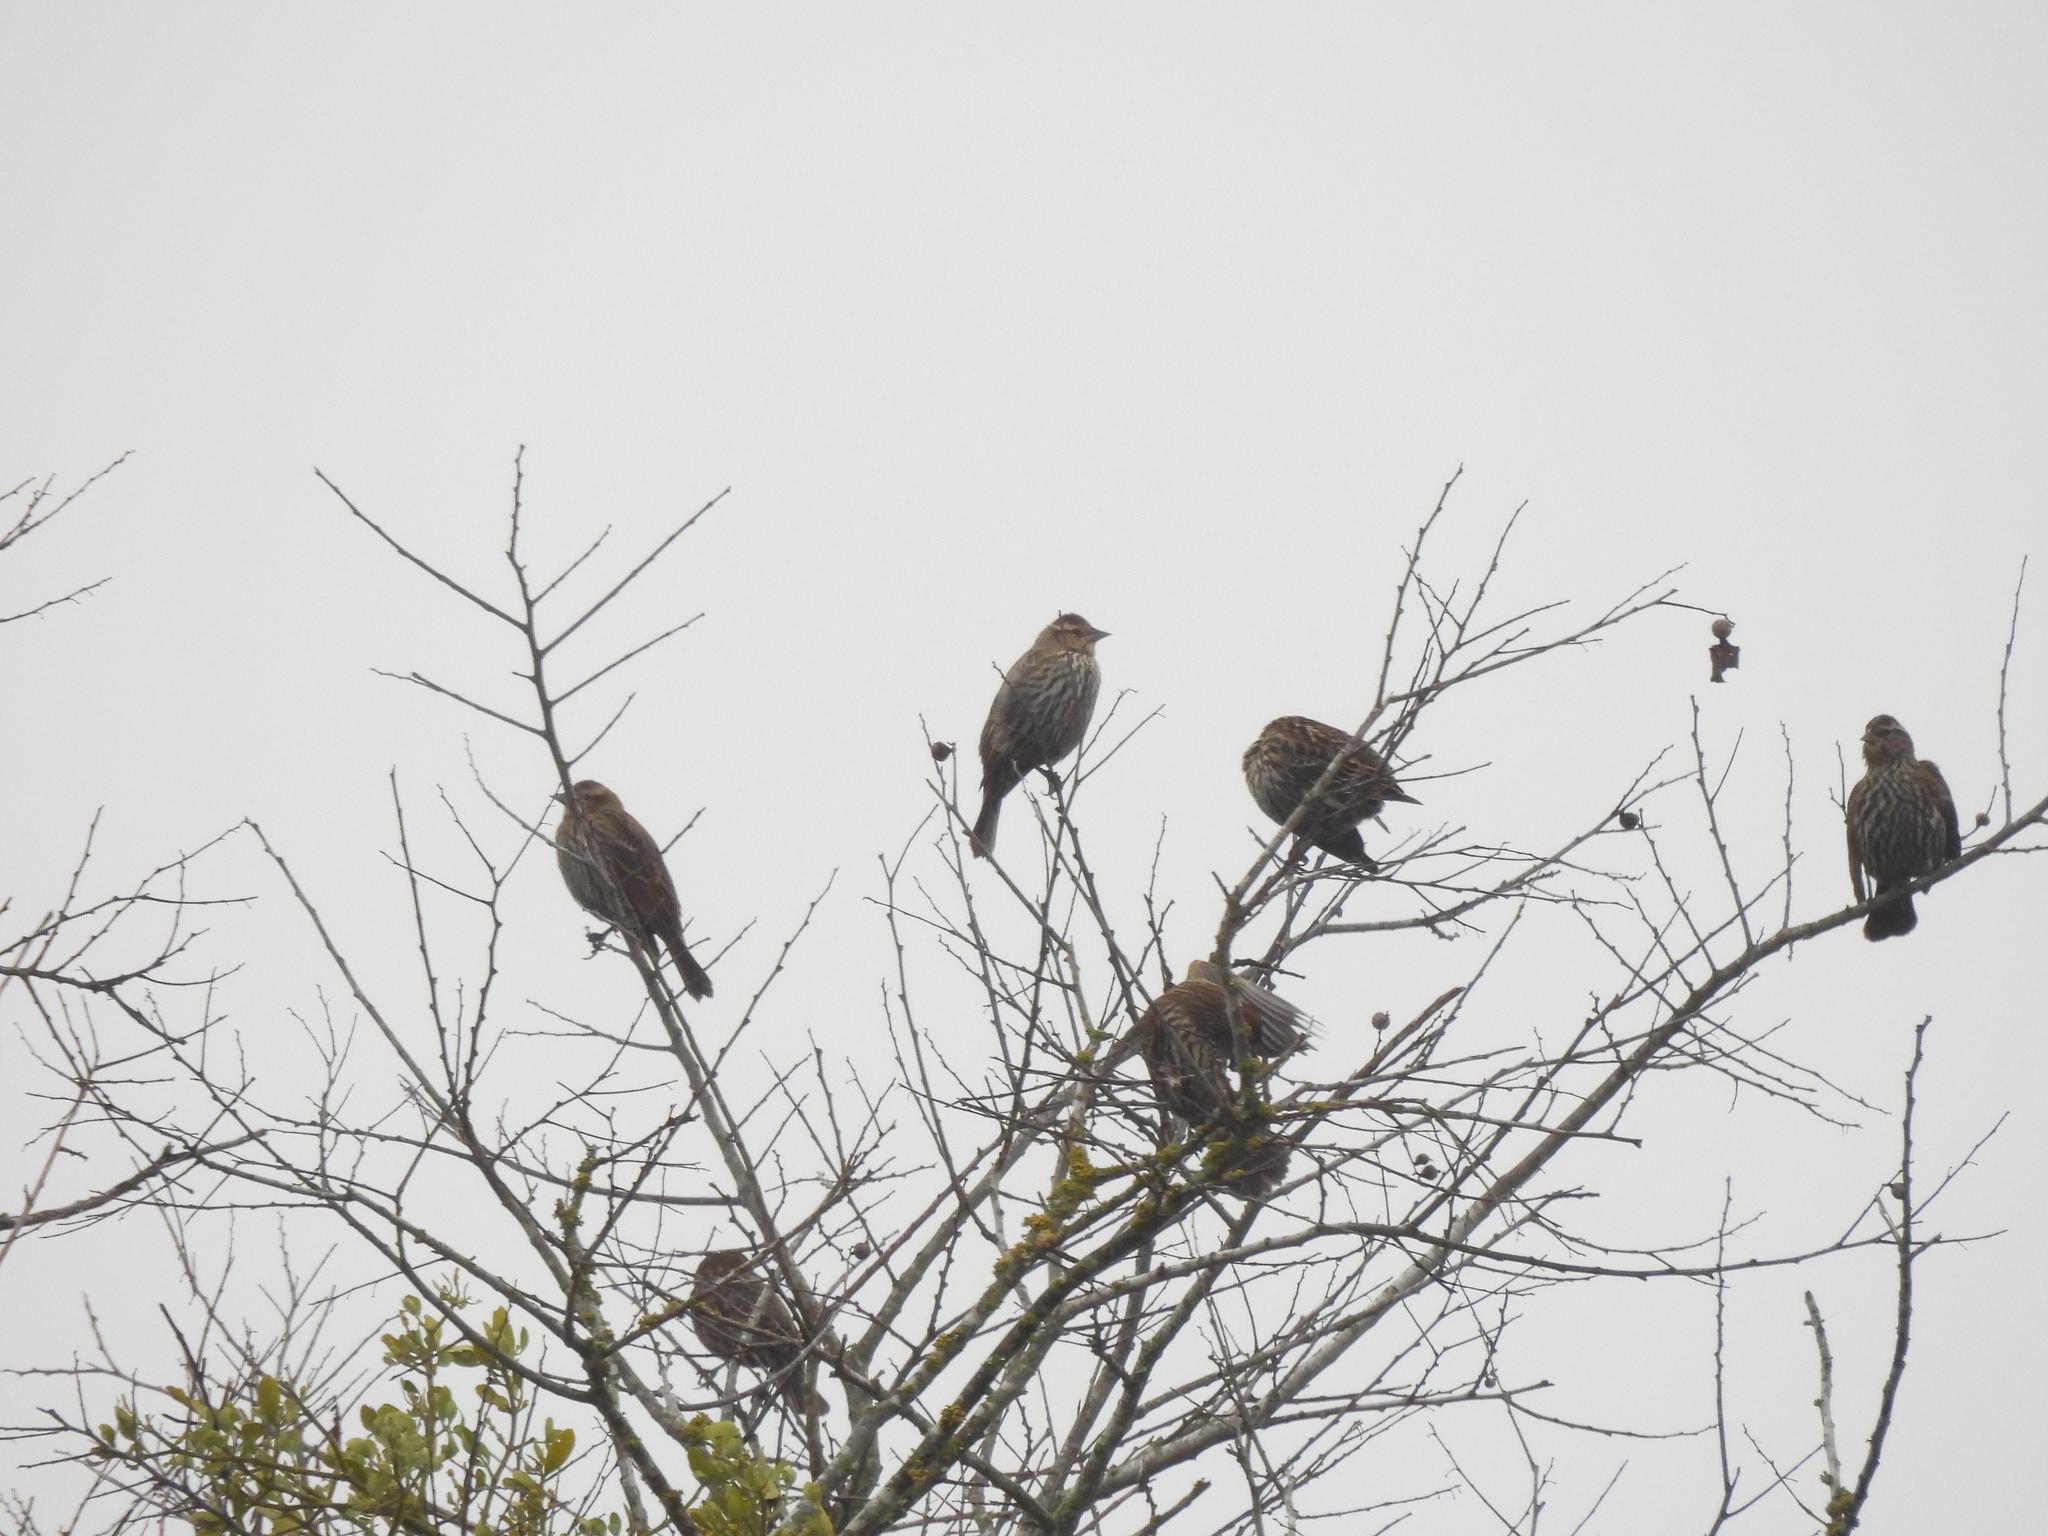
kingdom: Animalia
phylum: Chordata
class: Aves
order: Passeriformes
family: Icteridae
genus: Agelaius
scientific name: Agelaius phoeniceus
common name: Red-winged blackbird
